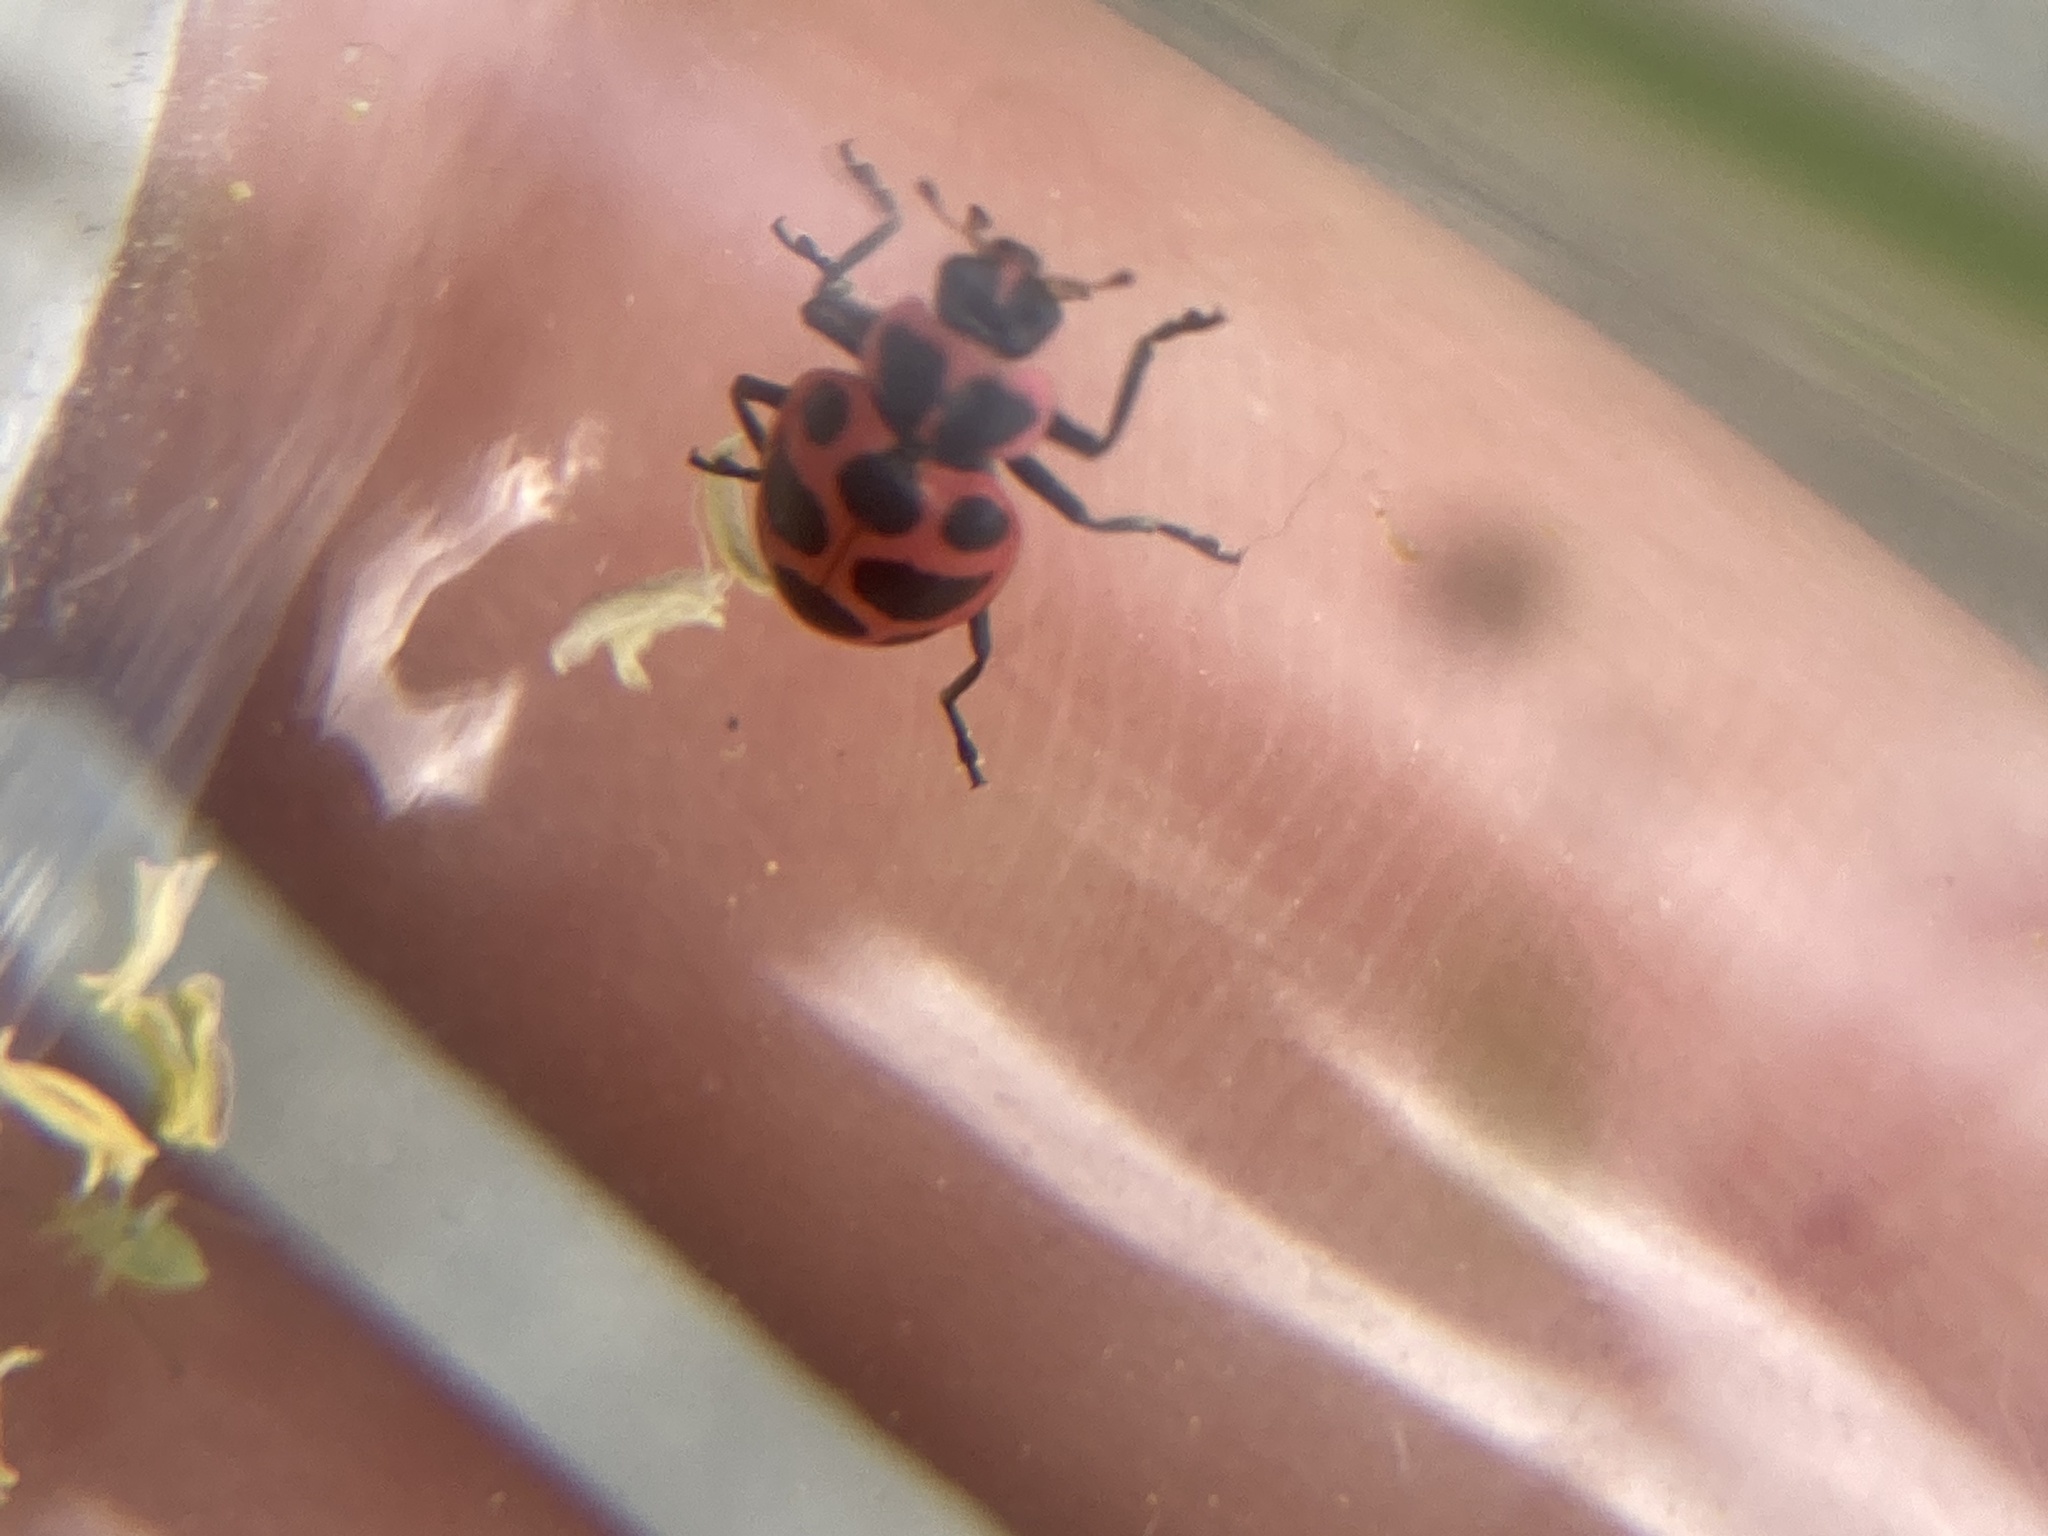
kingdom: Animalia
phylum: Arthropoda
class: Insecta
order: Coleoptera
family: Coccinellidae
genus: Coleomegilla
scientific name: Coleomegilla maculata
